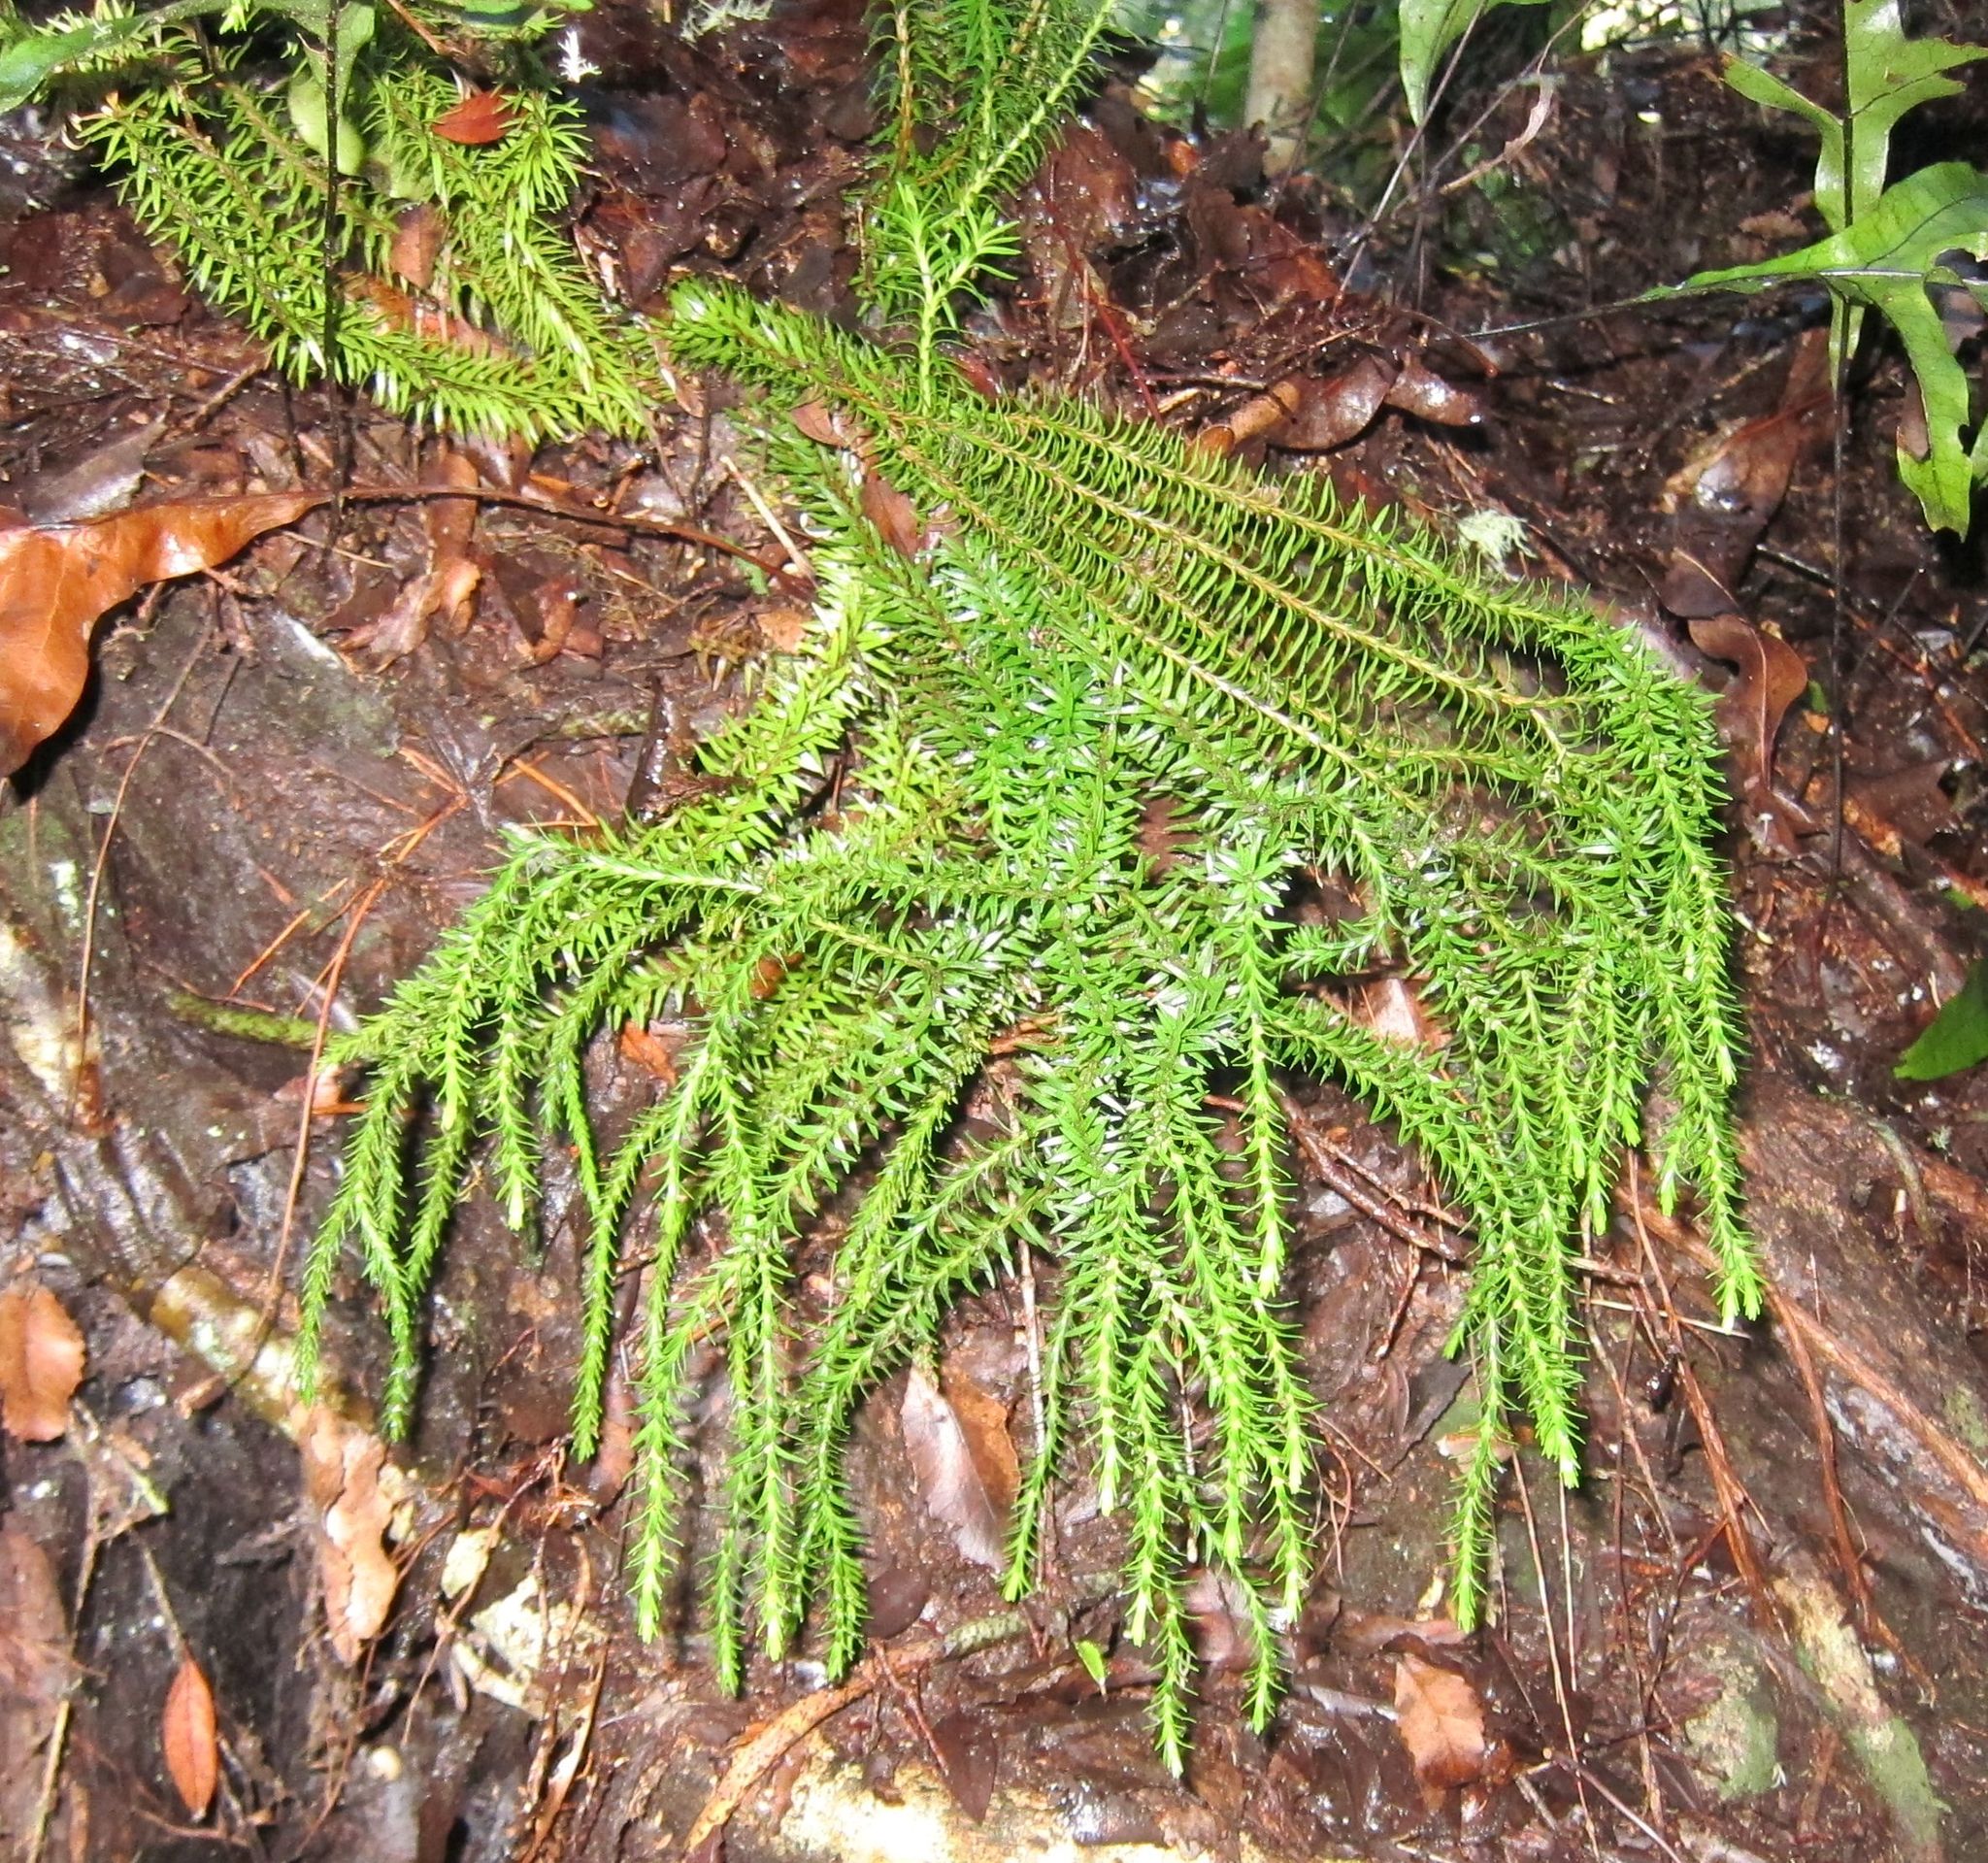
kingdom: Plantae
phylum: Tracheophyta
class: Lycopodiopsida
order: Lycopodiales
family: Lycopodiaceae
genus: Phlegmariurus
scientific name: Phlegmariurus varius
